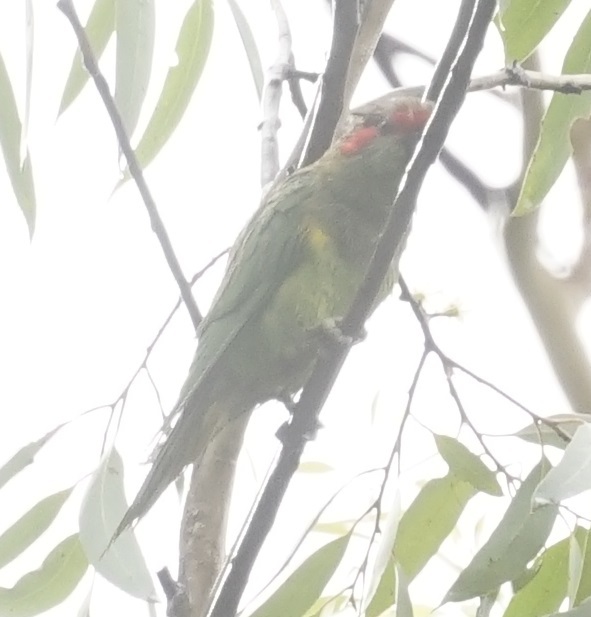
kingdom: Animalia
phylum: Chordata
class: Aves
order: Psittaciformes
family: Psittacidae
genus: Glossopsitta
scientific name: Glossopsitta concinna
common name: Musk lorikeet
